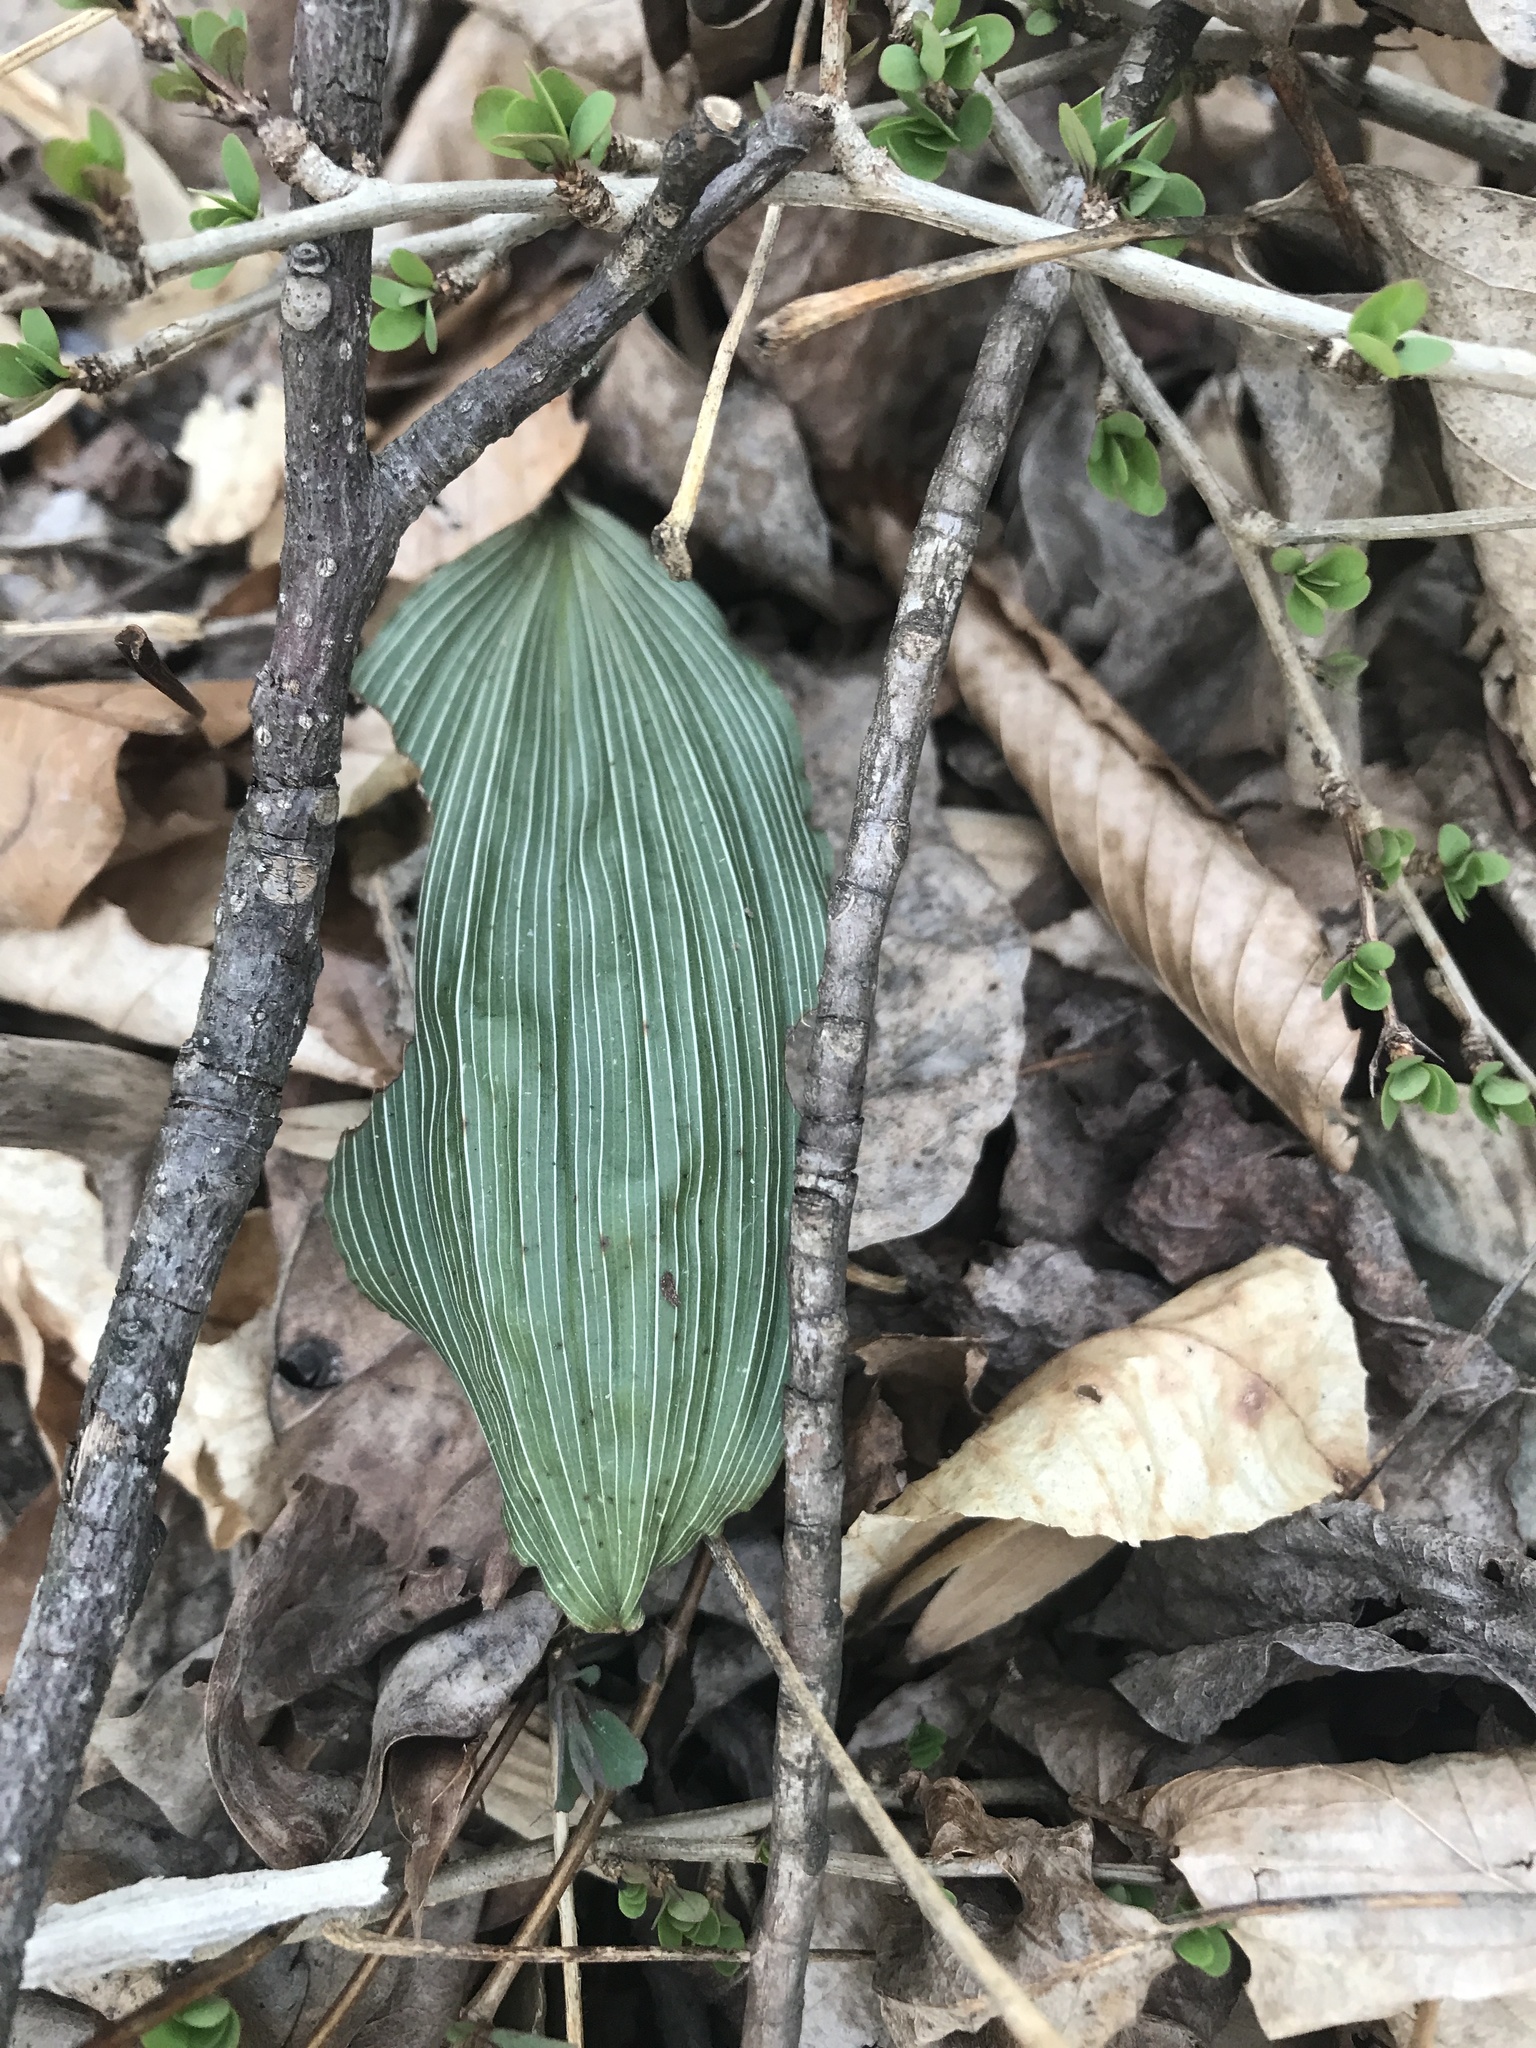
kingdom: Plantae
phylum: Tracheophyta
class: Liliopsida
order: Asparagales
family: Orchidaceae
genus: Aplectrum
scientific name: Aplectrum hyemale
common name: Adam-and-eve
